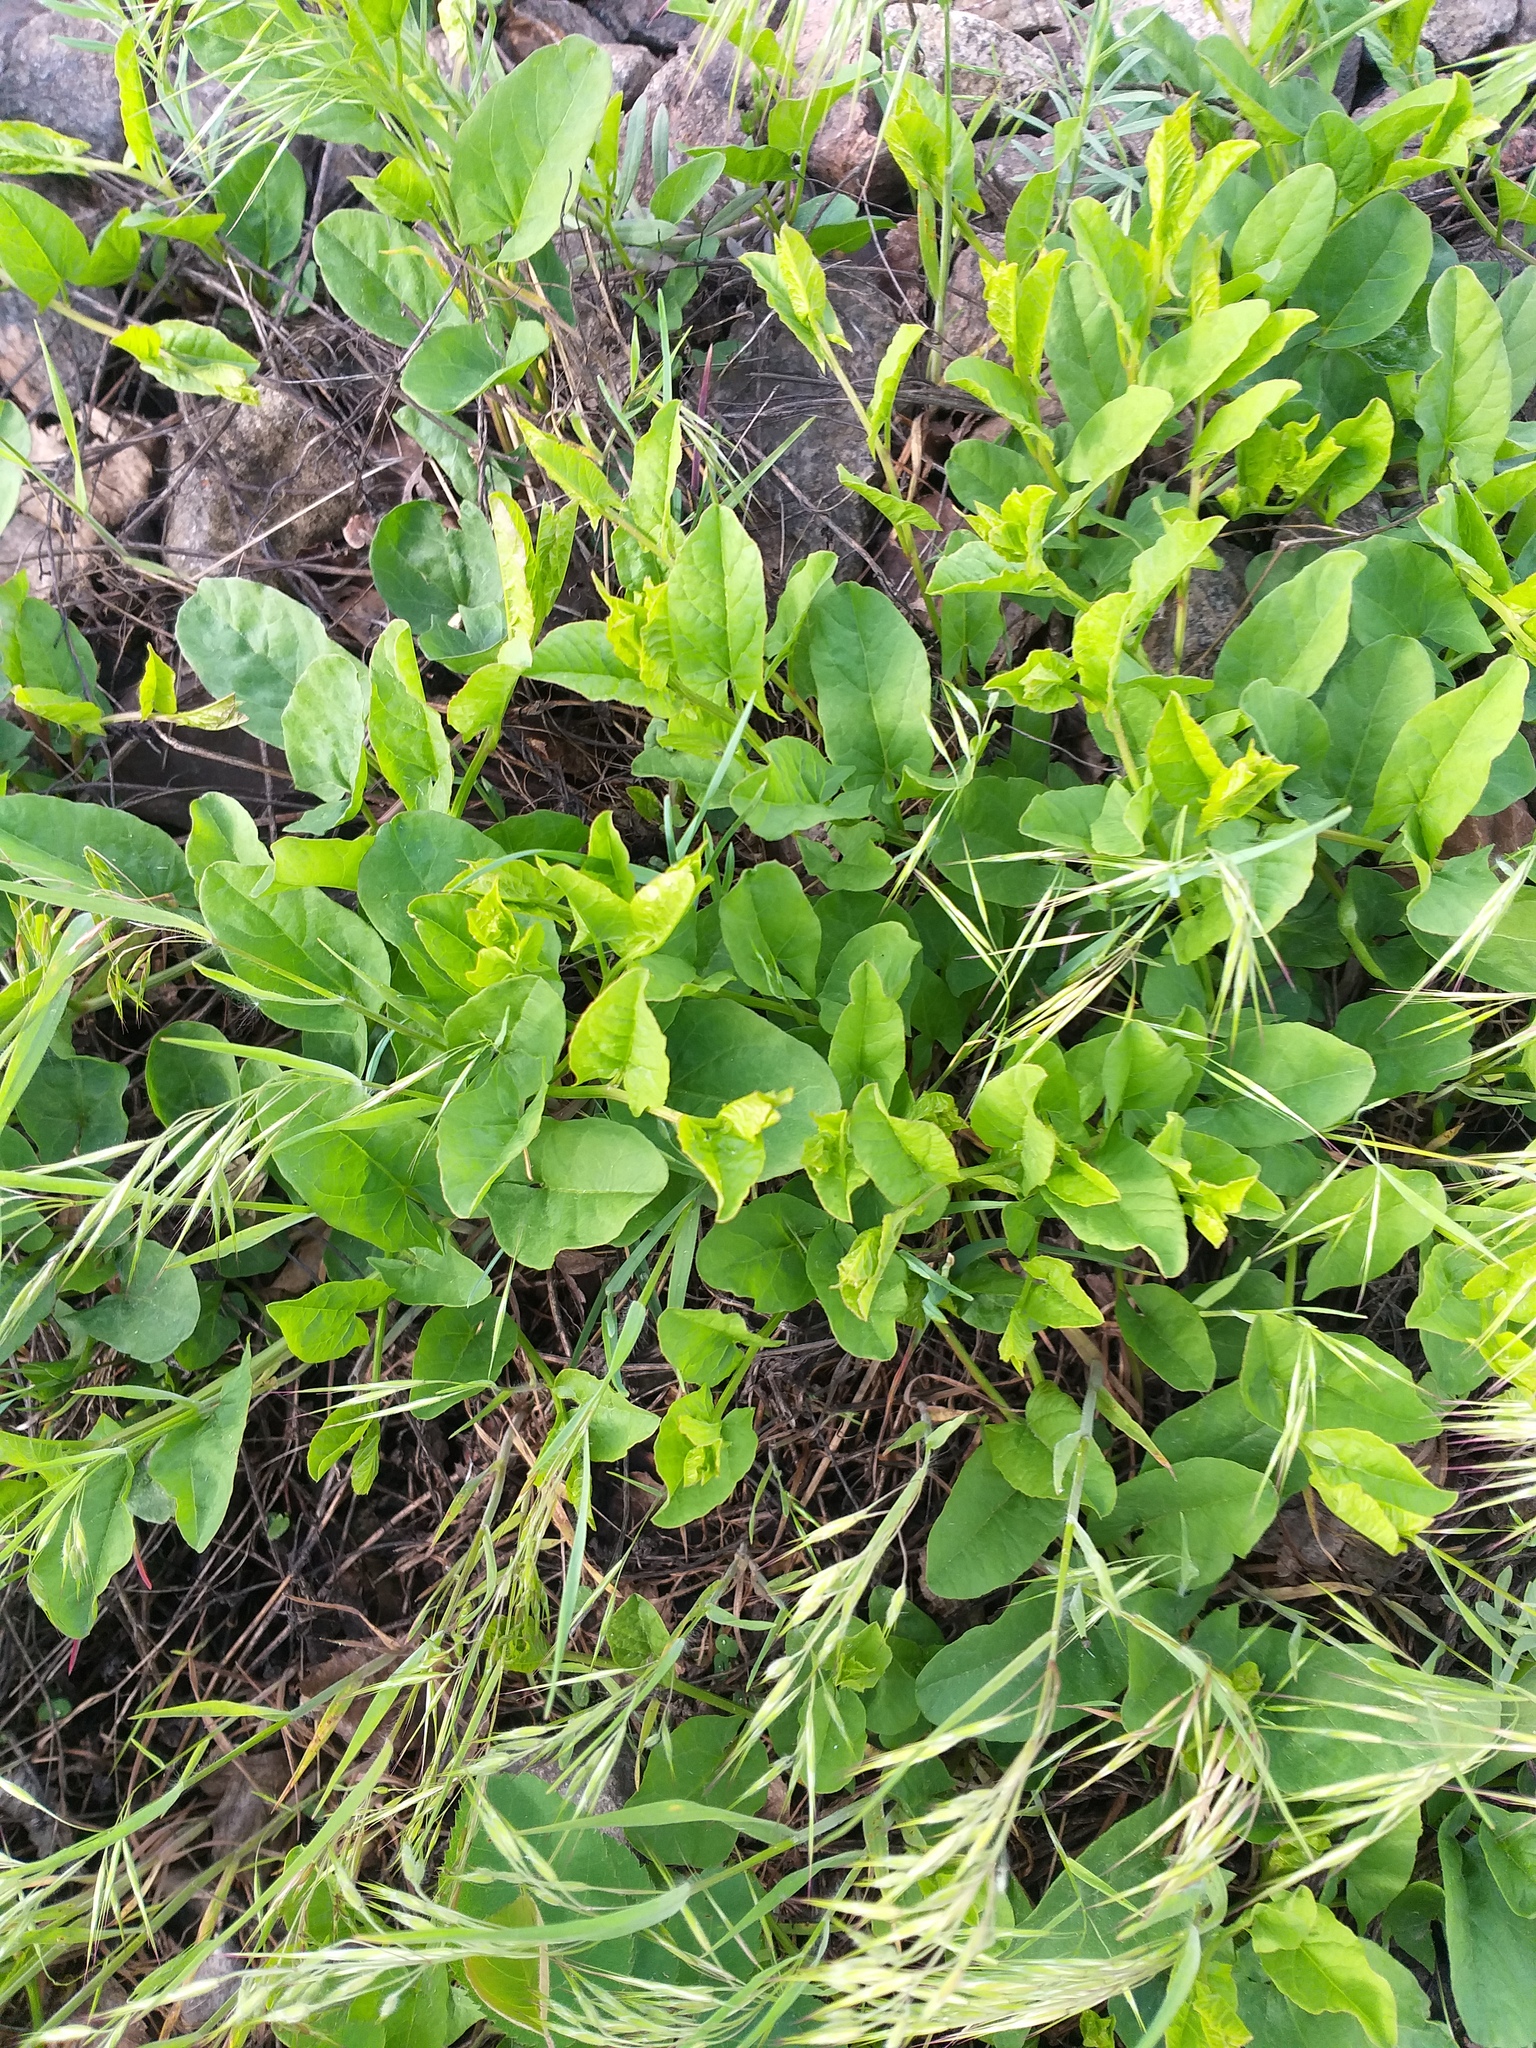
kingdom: Plantae
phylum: Tracheophyta
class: Magnoliopsida
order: Solanales
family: Convolvulaceae
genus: Convolvulus
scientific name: Convolvulus arvensis
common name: Field bindweed
